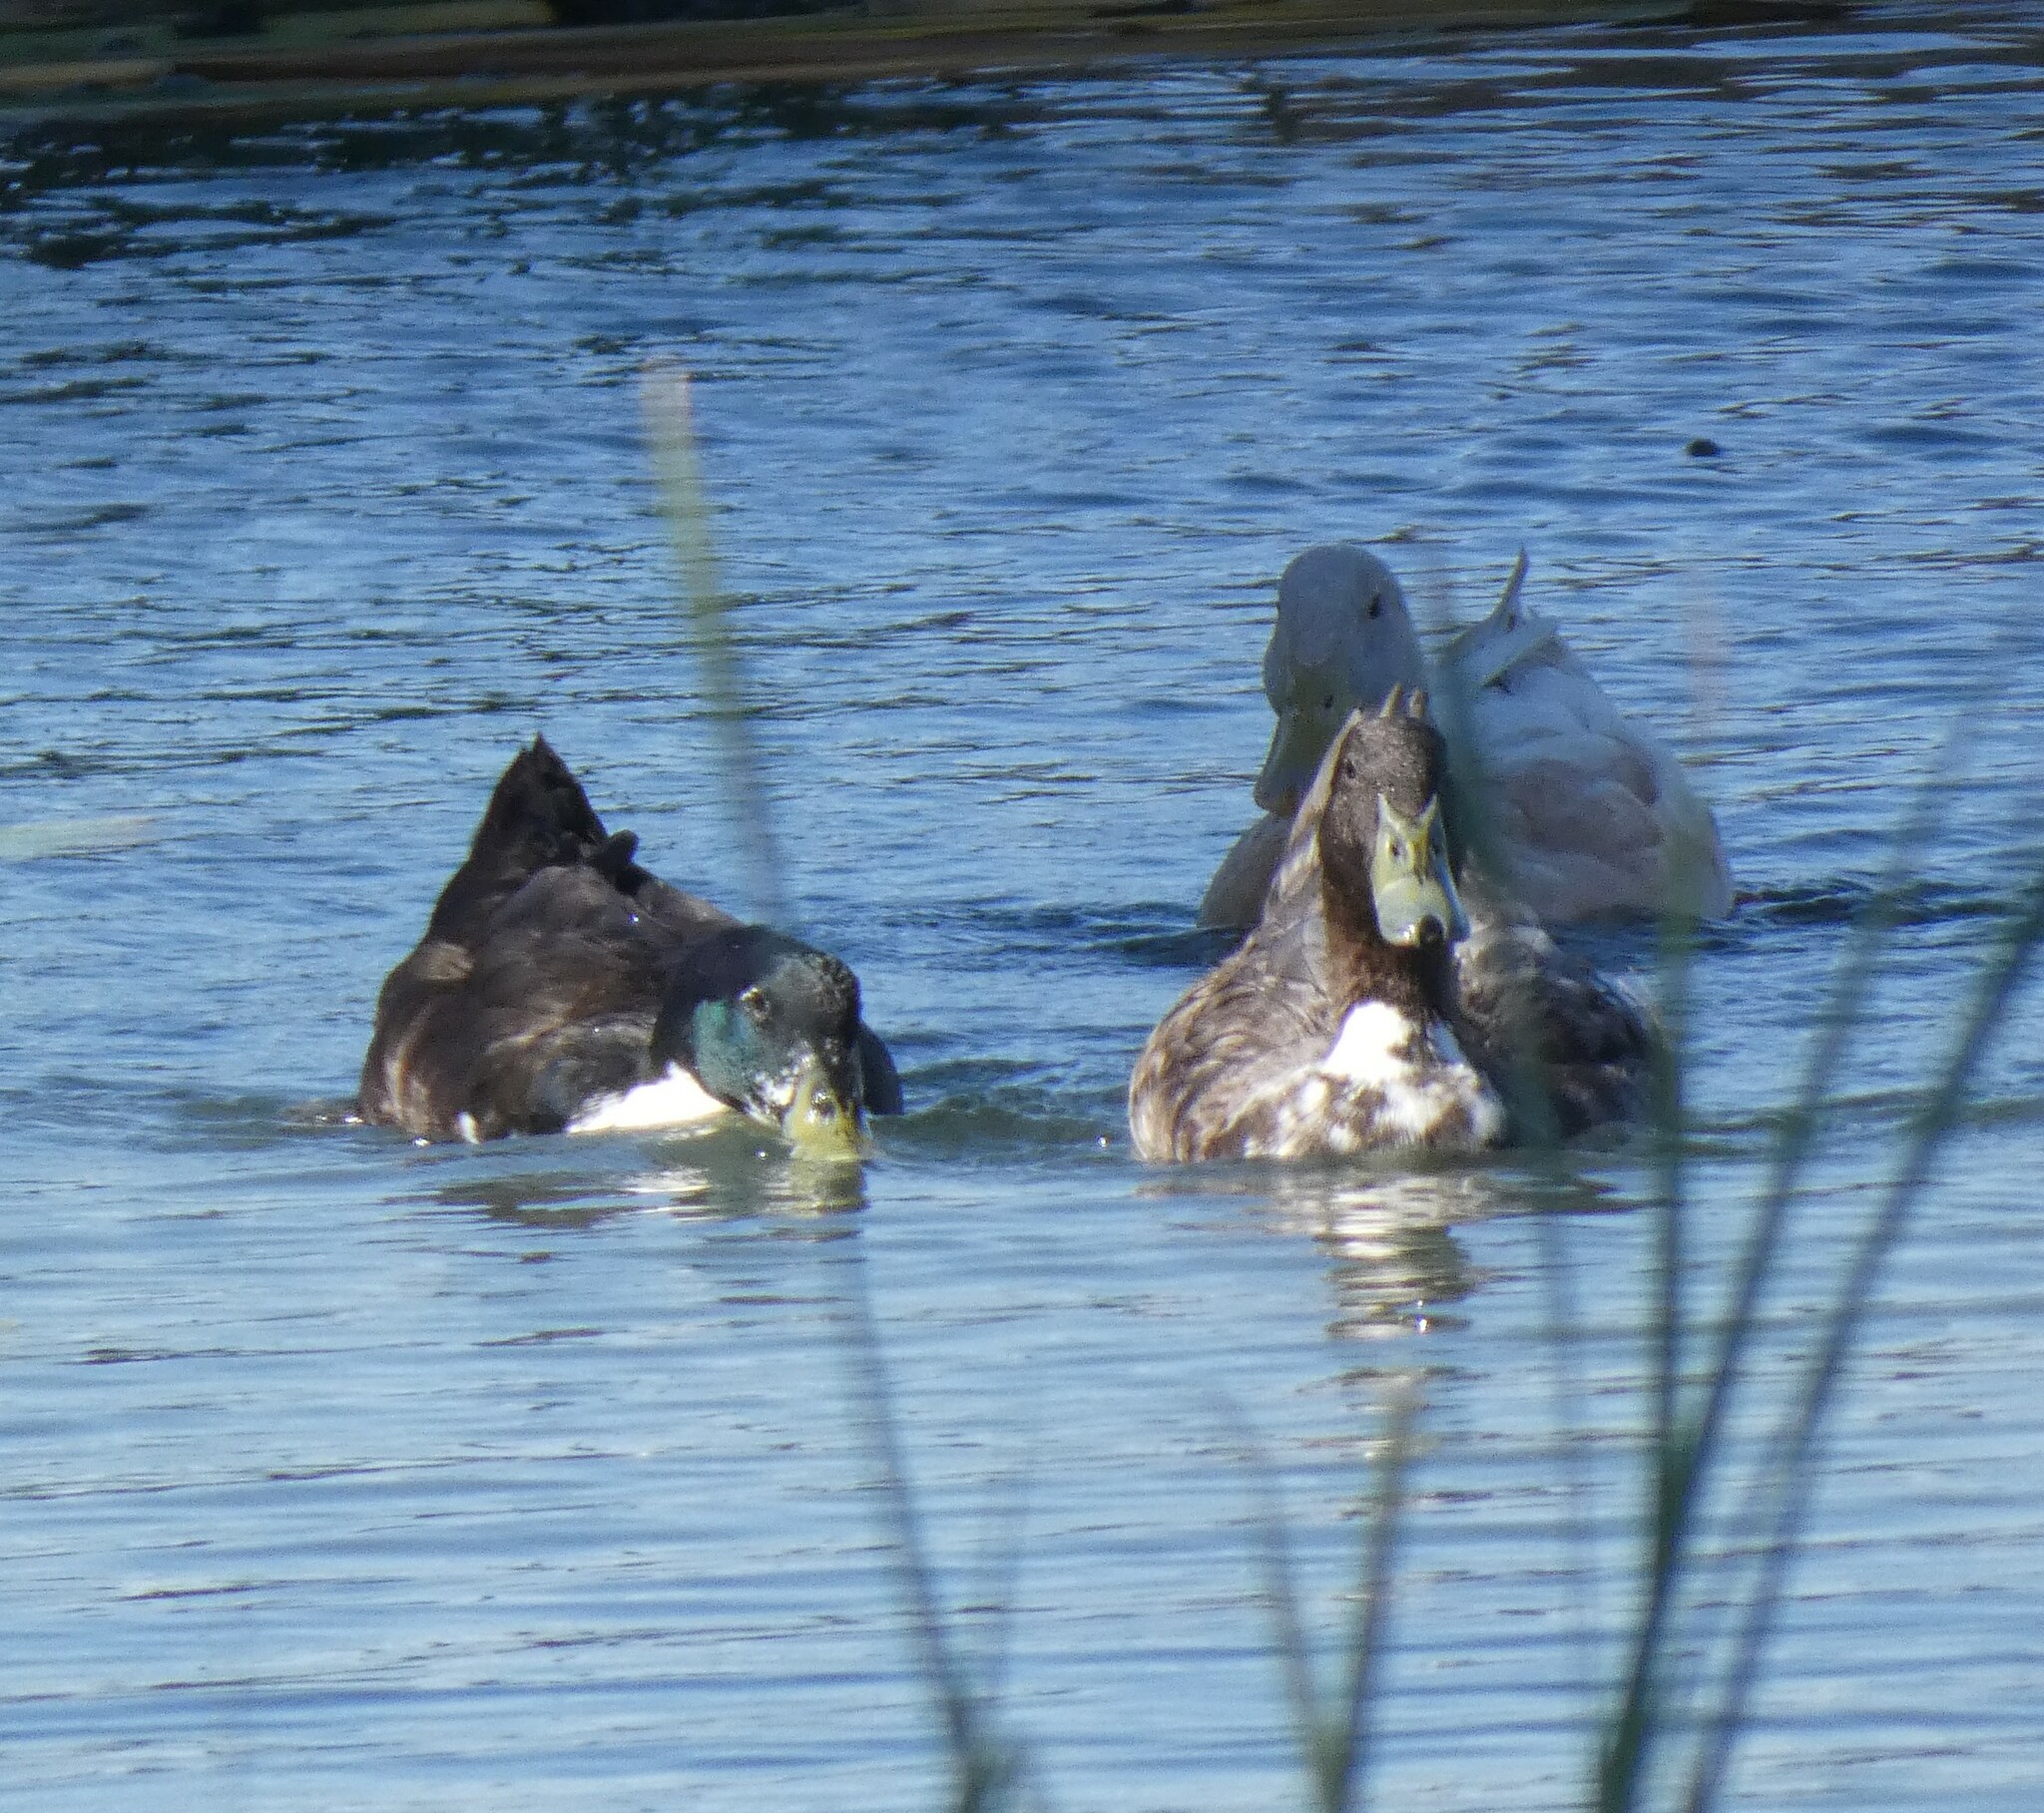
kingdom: Animalia
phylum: Chordata
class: Aves
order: Anseriformes
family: Anatidae
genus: Anas
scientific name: Anas platyrhynchos
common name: Mallard
